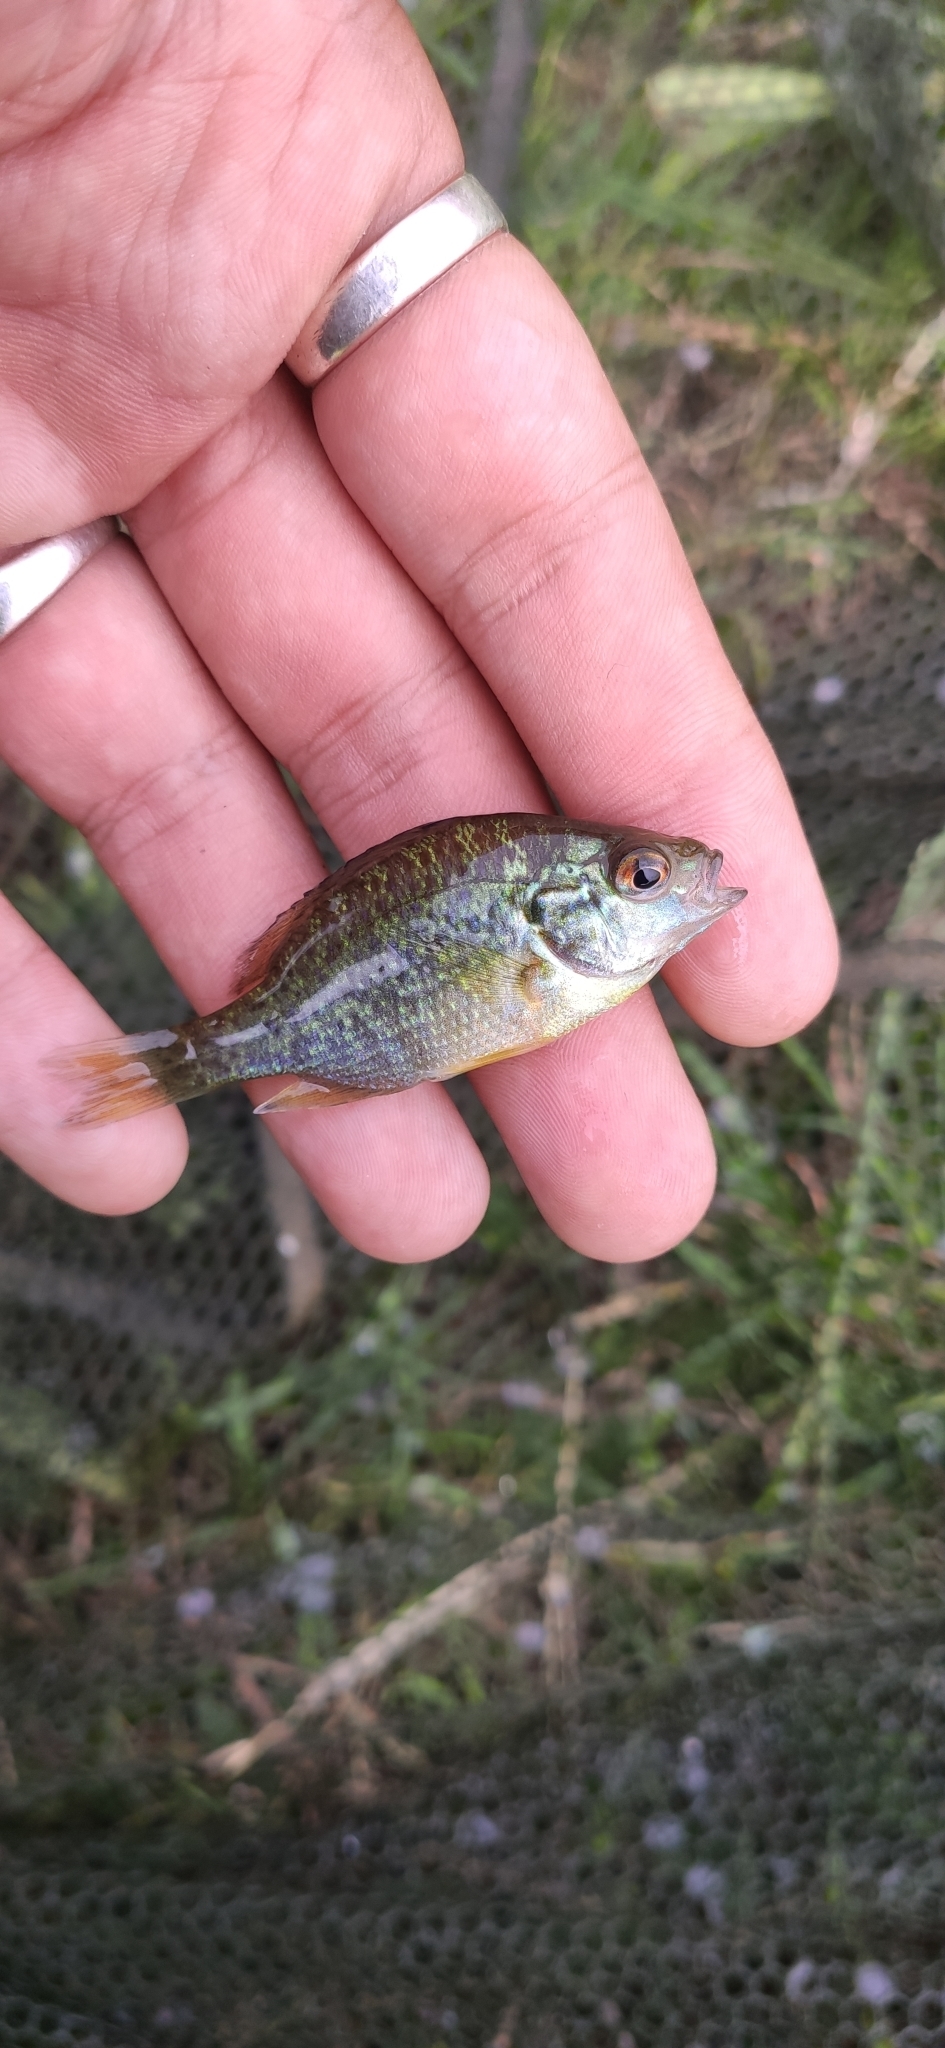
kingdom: Animalia
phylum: Chordata
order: Perciformes
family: Centrarchidae
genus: Lepomis
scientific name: Lepomis gibbosus
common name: Pumpkinseed
